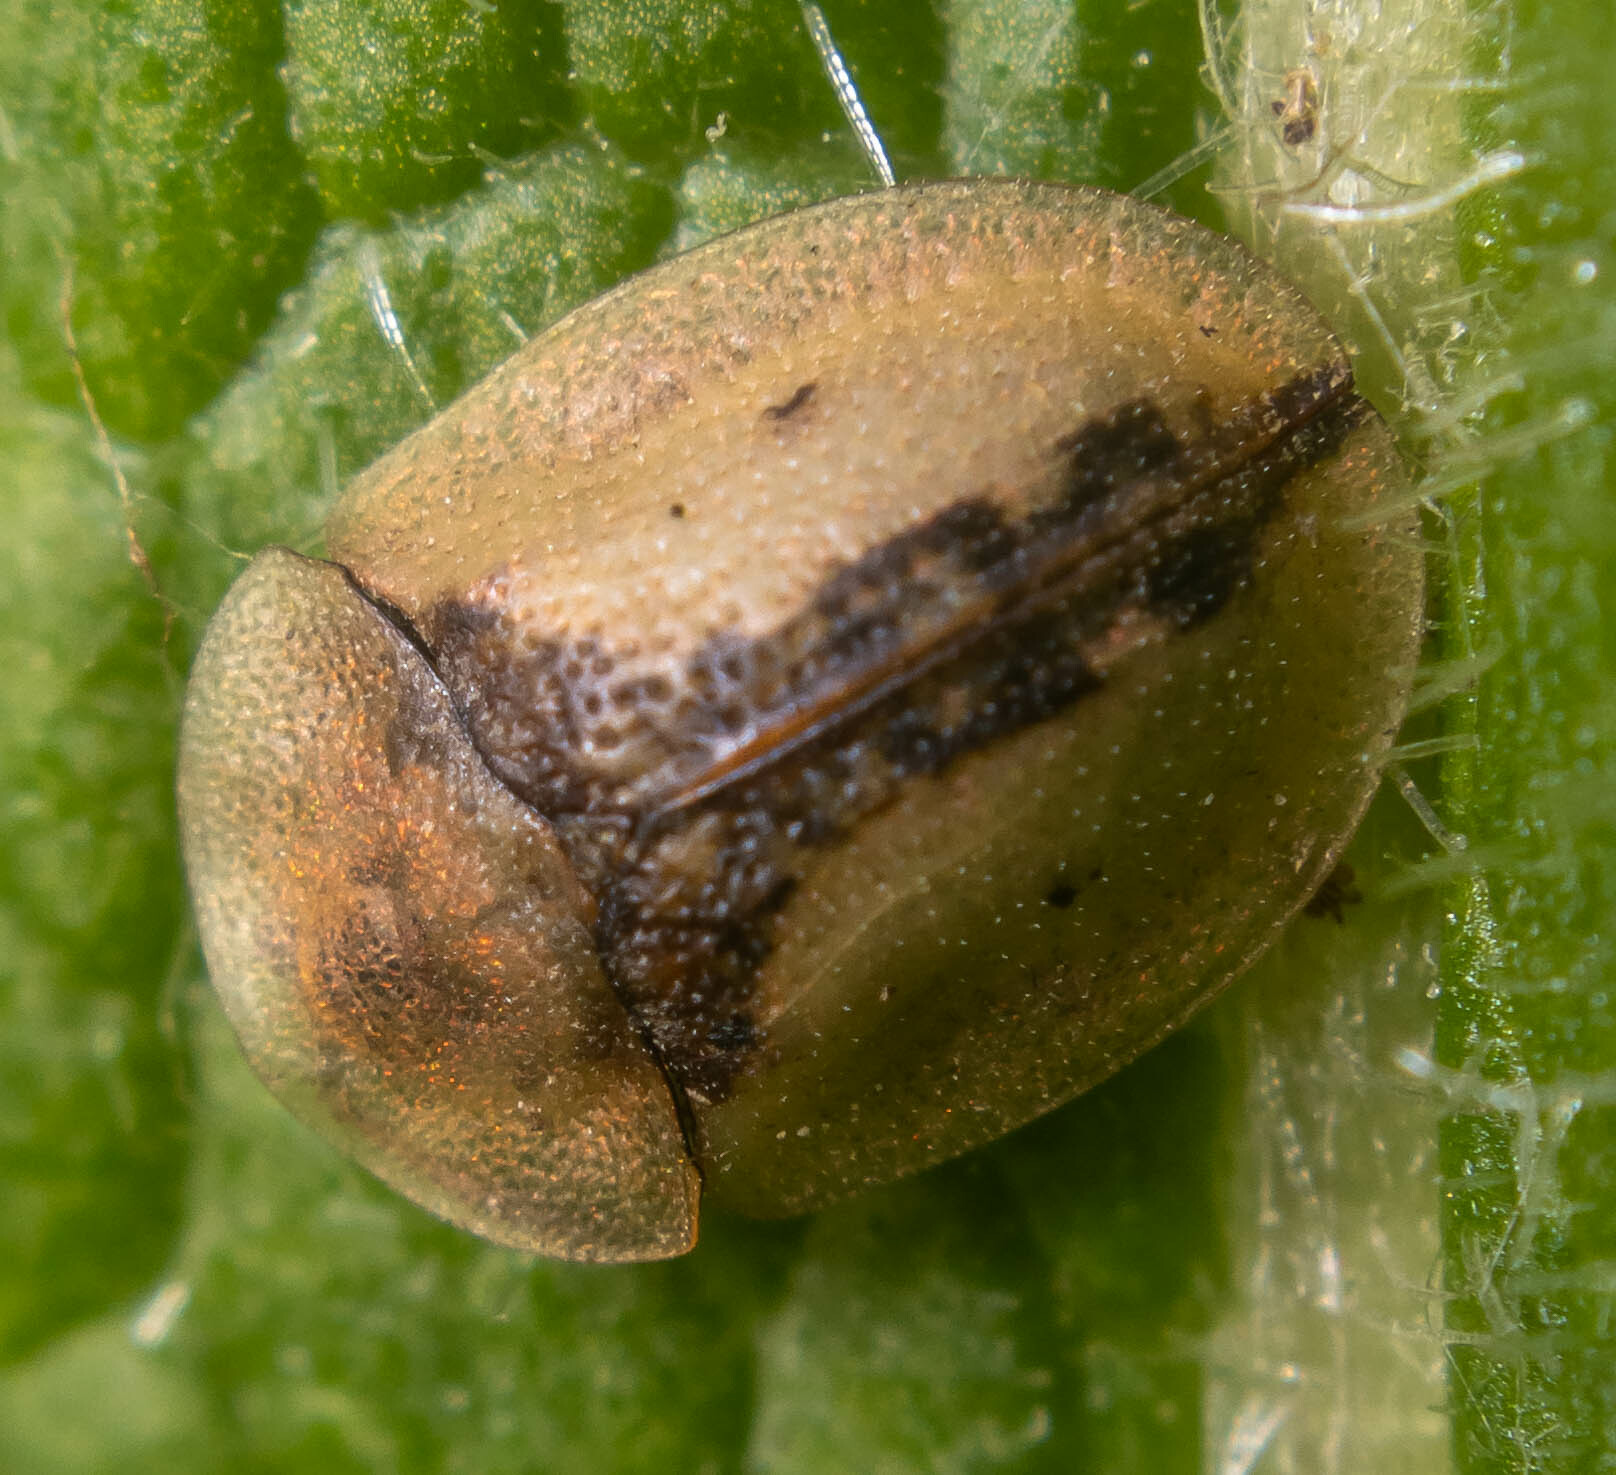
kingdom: Animalia
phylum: Arthropoda
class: Insecta
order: Coleoptera
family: Chrysomelidae
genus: Cassida
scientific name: Cassida vibex
